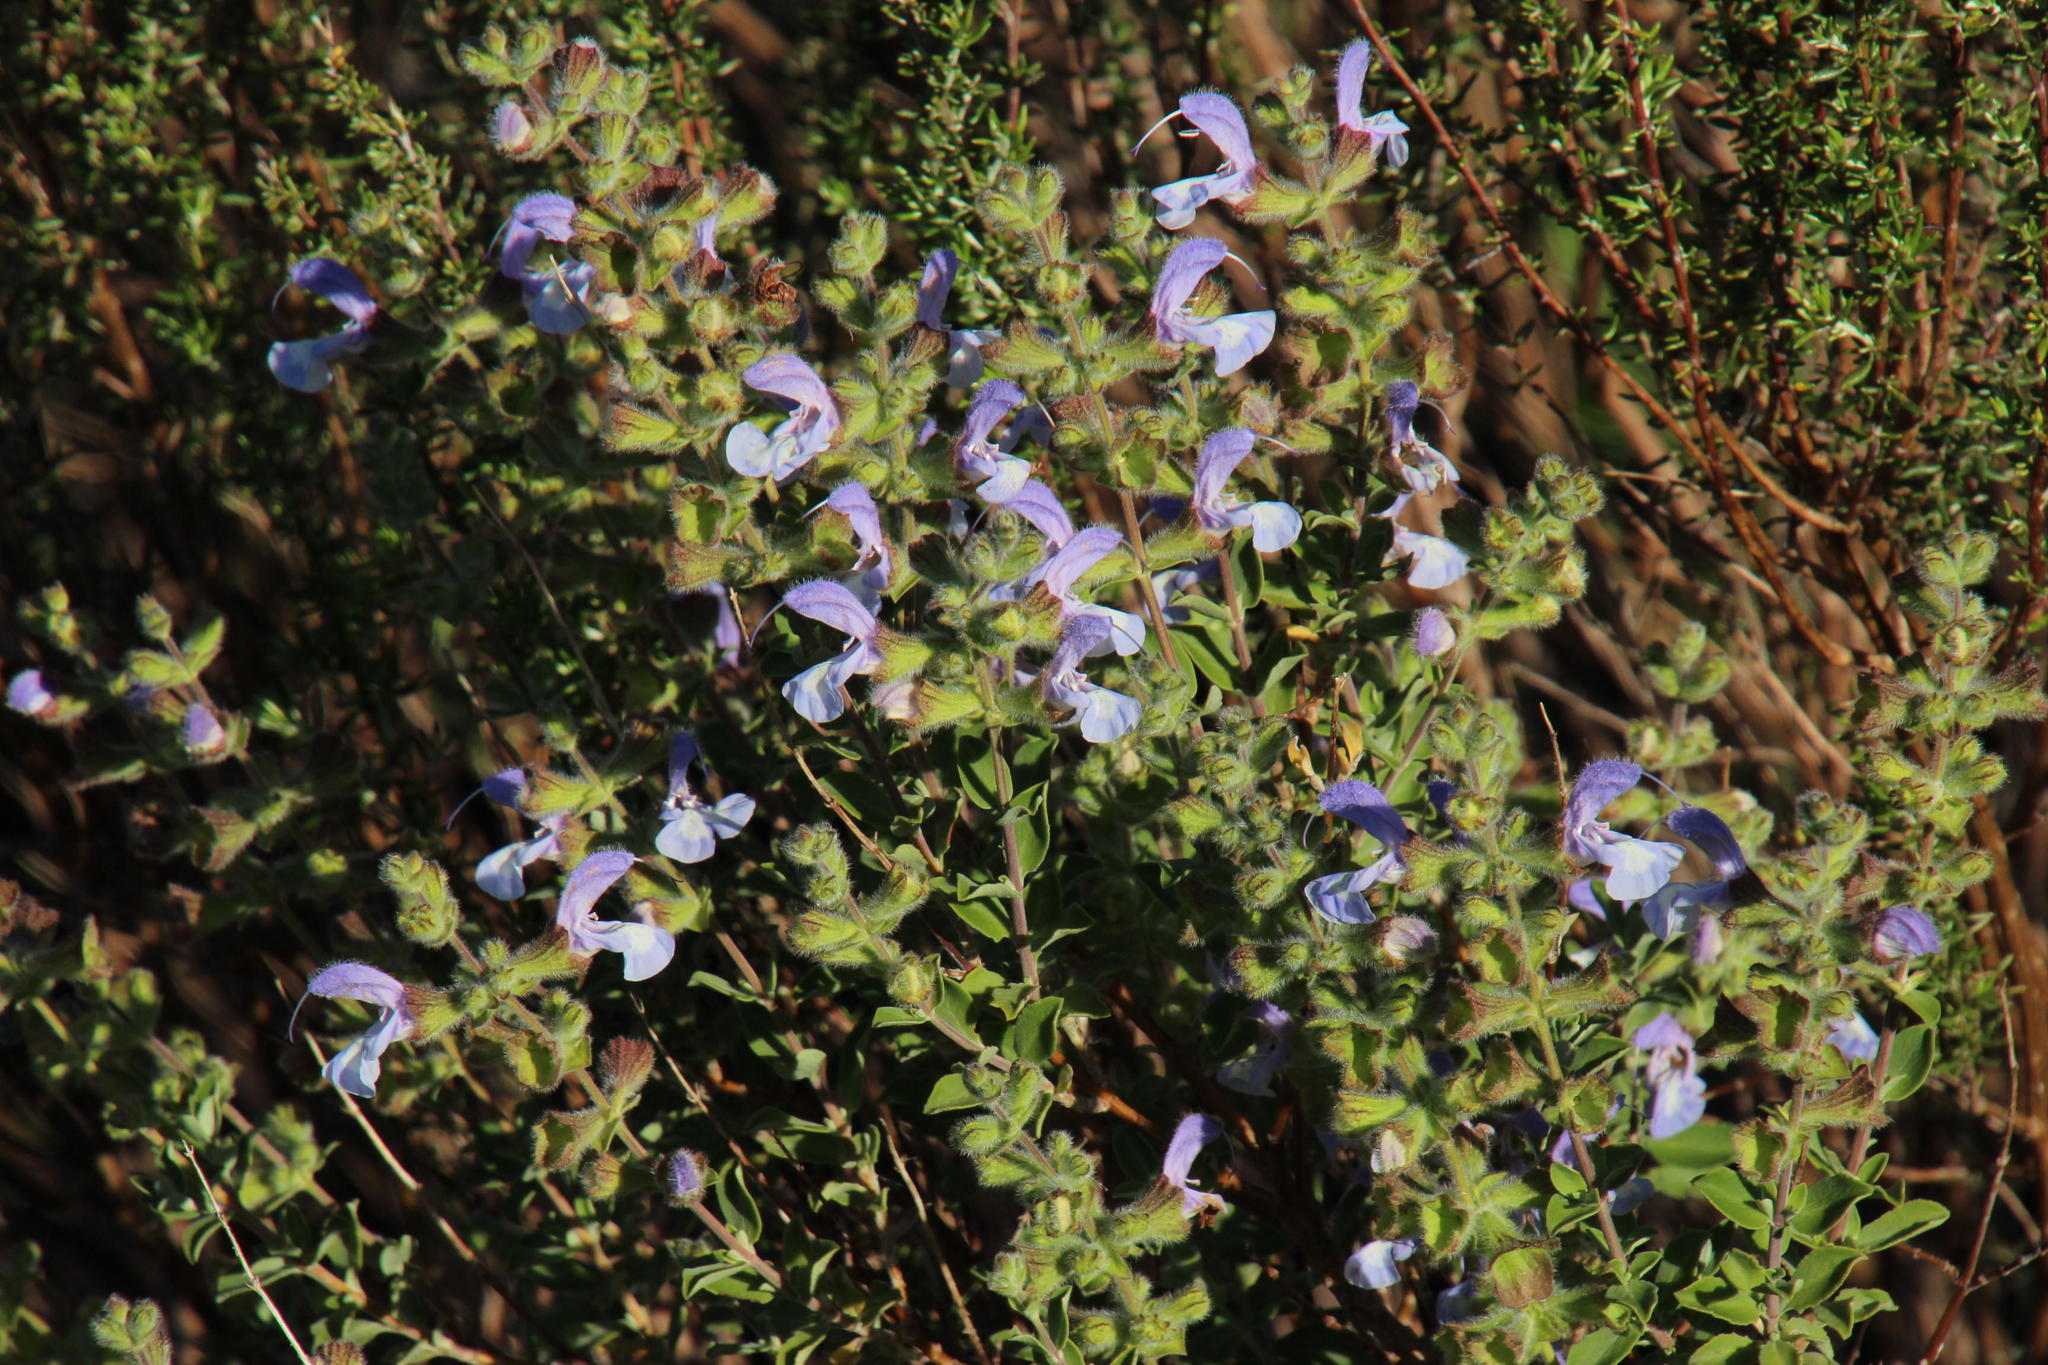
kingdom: Plantae
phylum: Tracheophyta
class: Magnoliopsida
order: Lamiales
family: Lamiaceae
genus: Salvia
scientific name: Salvia africana
